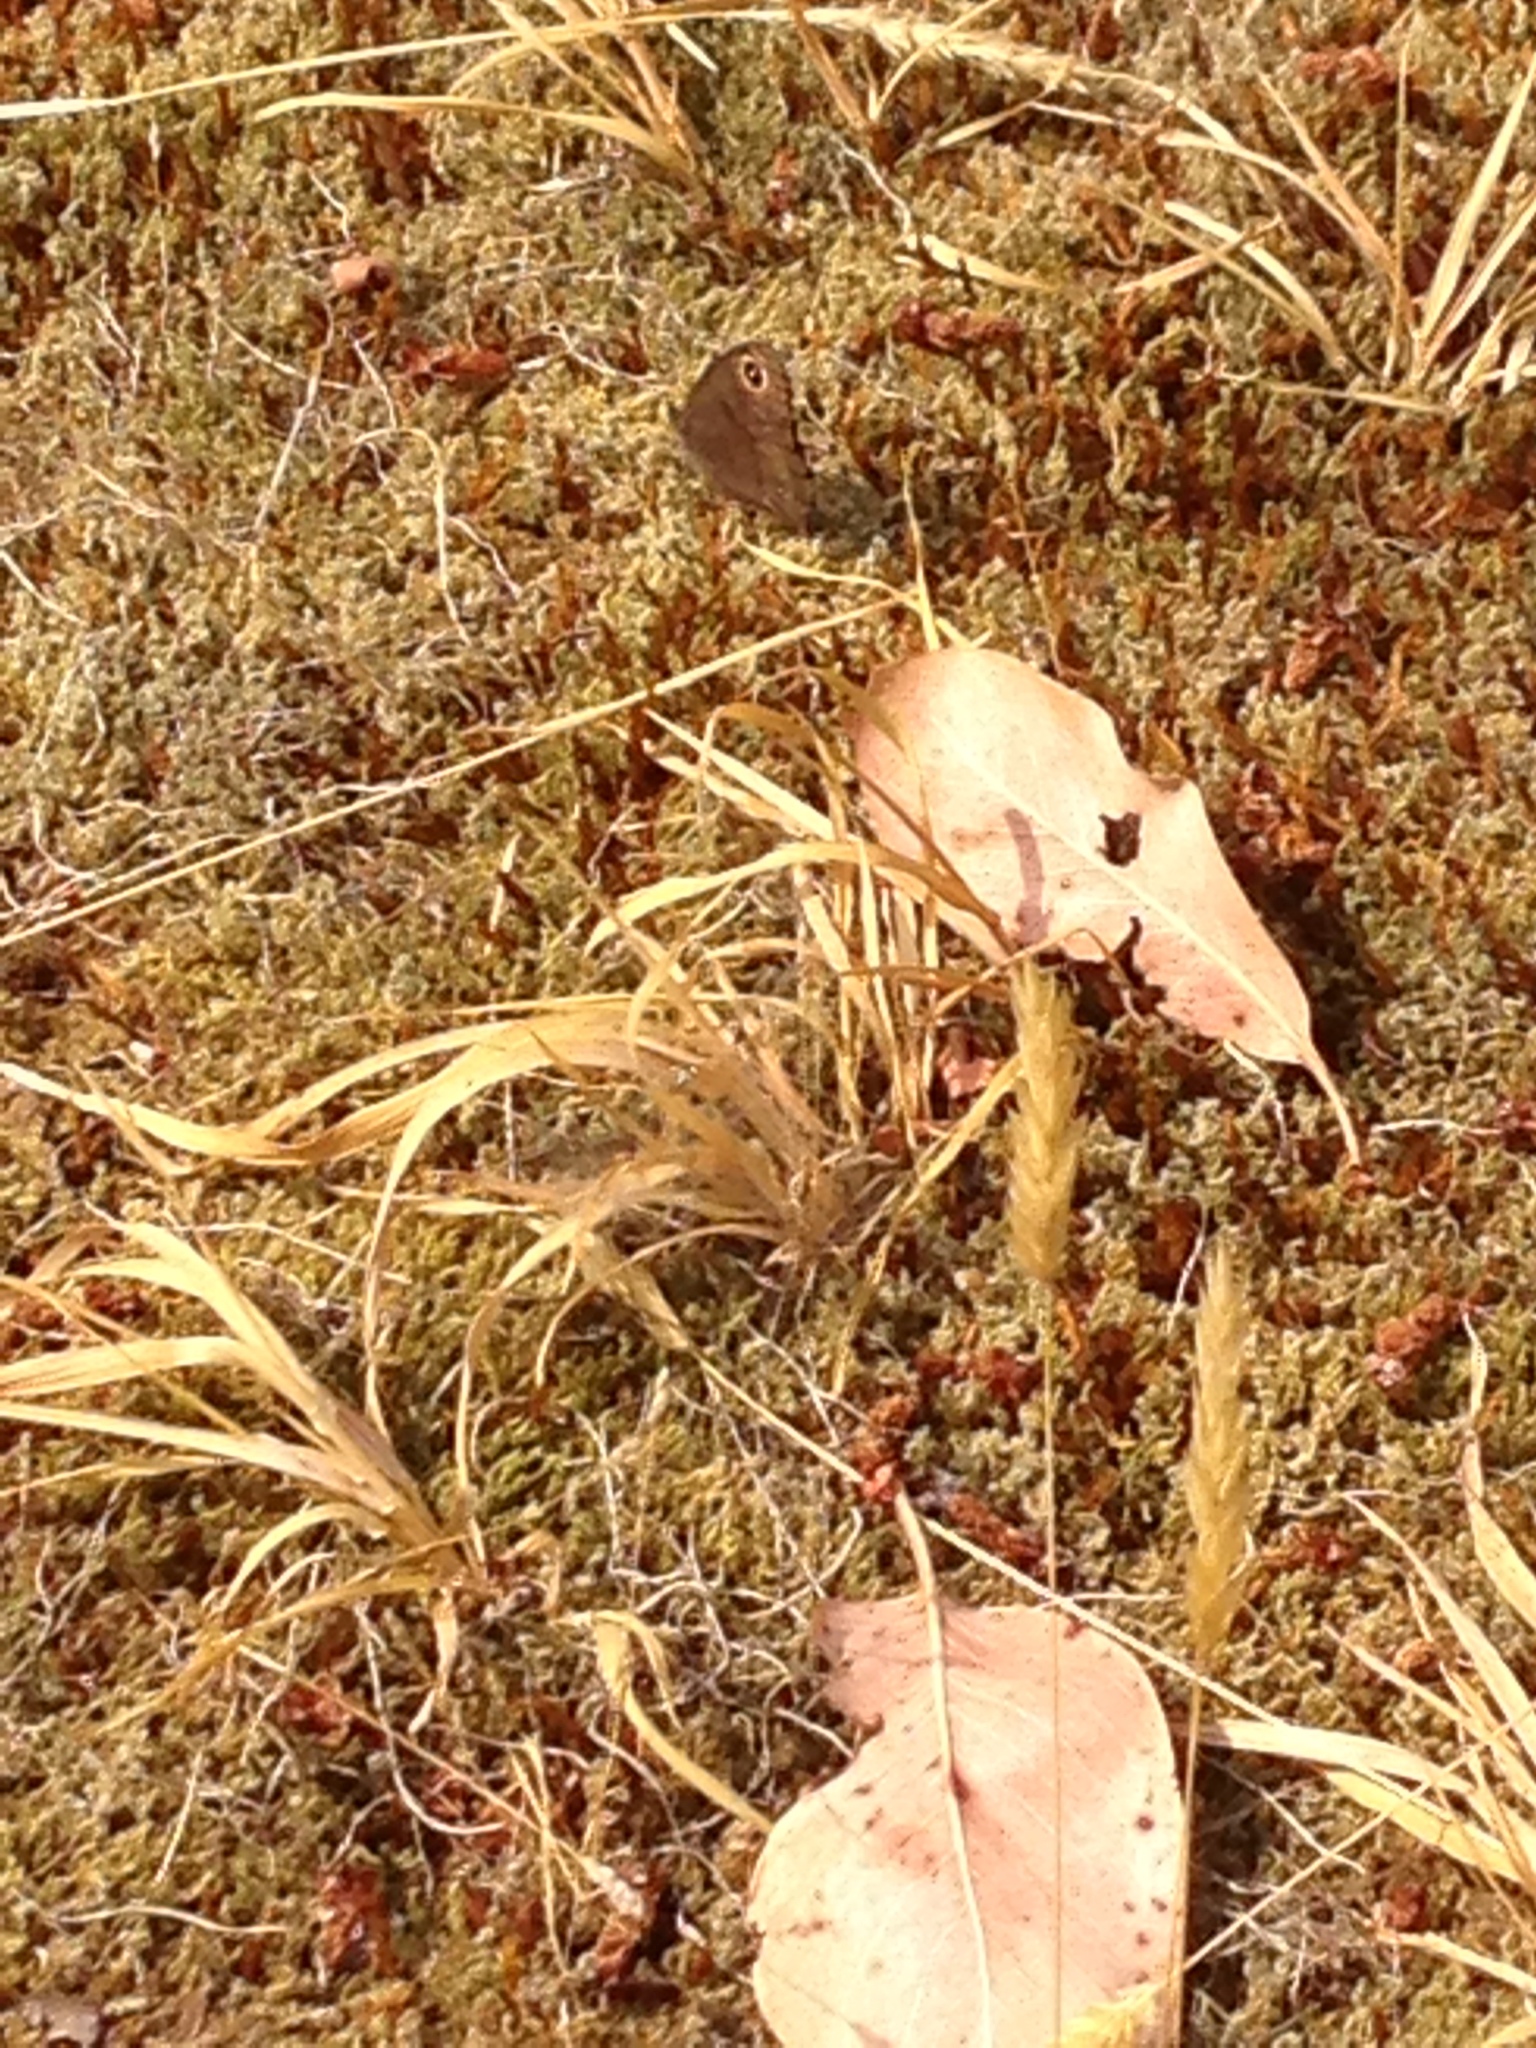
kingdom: Animalia
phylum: Arthropoda
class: Insecta
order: Lepidoptera
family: Nymphalidae
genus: Cercyonis
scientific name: Cercyonis pegala
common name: Common wood-nymph
